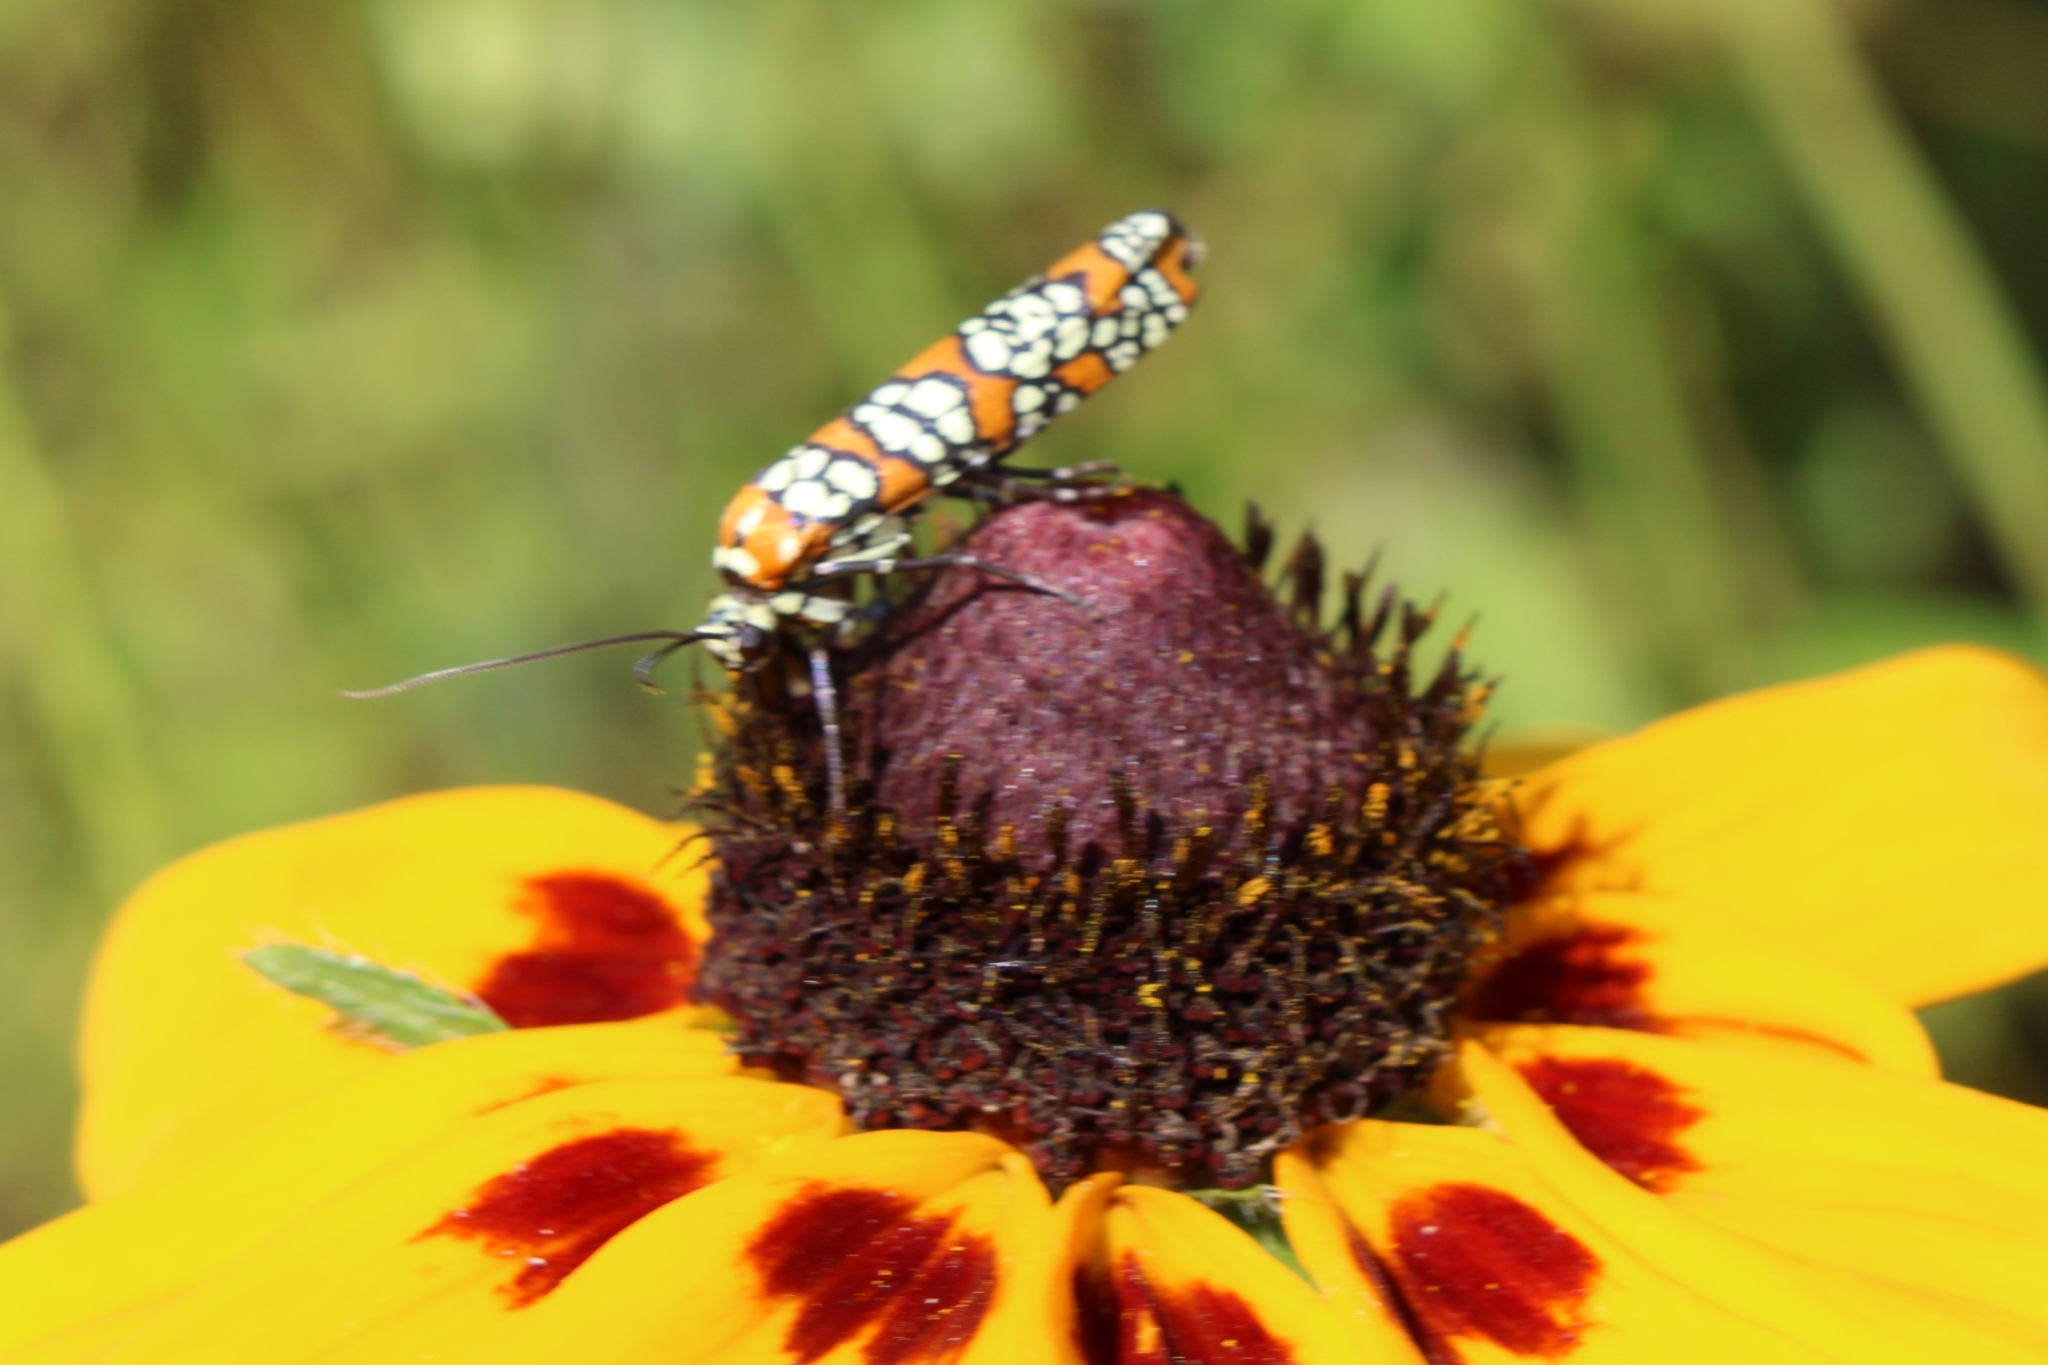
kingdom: Animalia
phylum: Arthropoda
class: Insecta
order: Lepidoptera
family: Attevidae
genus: Atteva
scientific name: Atteva punctella
